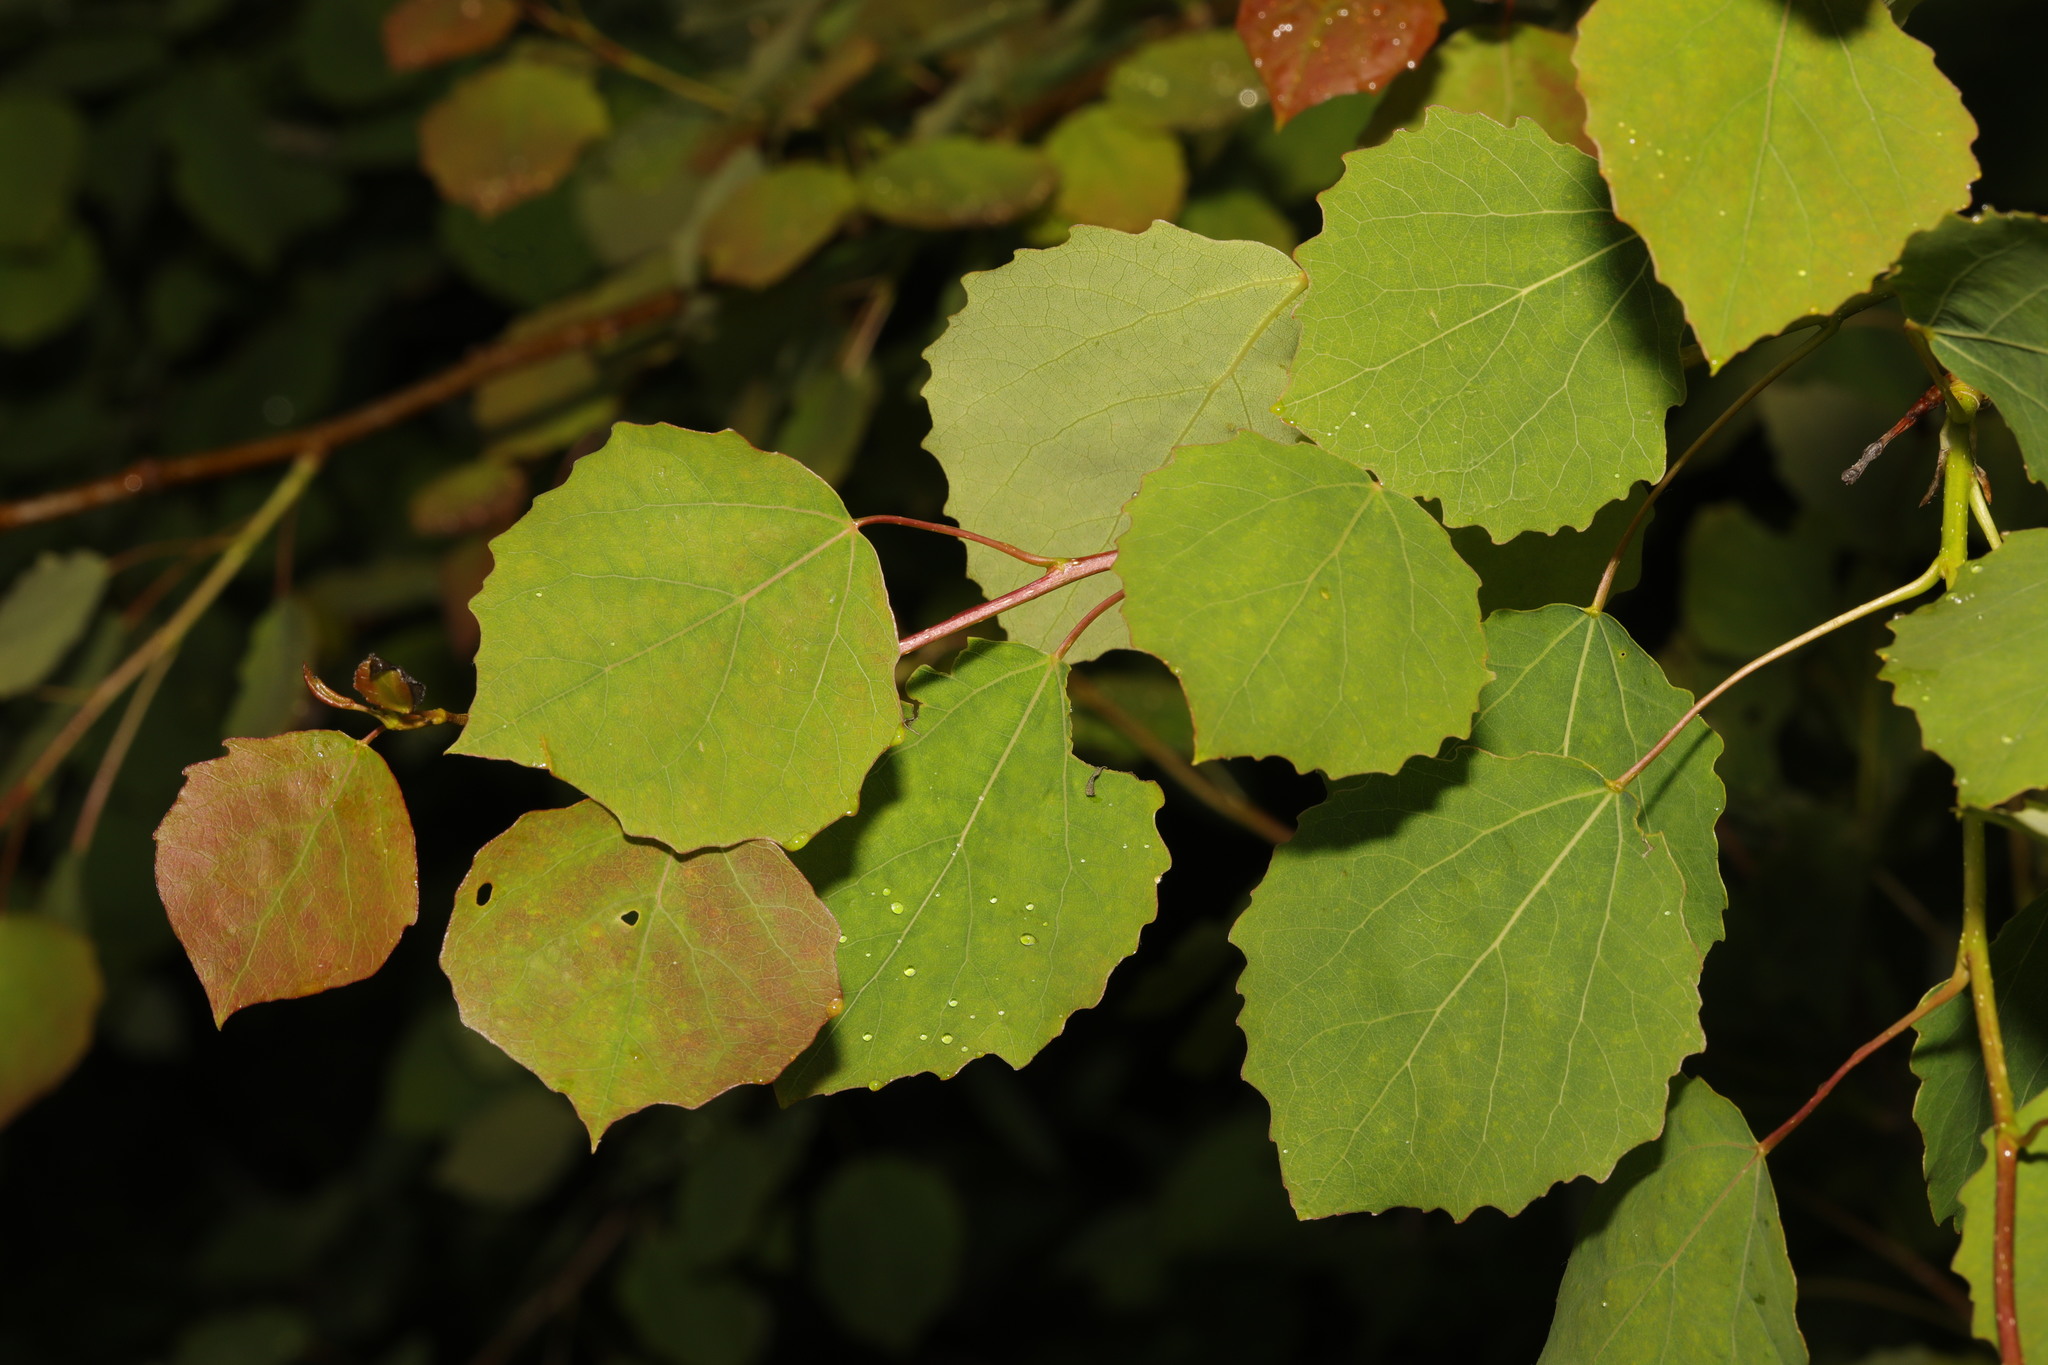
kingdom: Plantae
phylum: Tracheophyta
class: Magnoliopsida
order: Malpighiales
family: Salicaceae
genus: Populus
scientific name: Populus tremula
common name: European aspen
